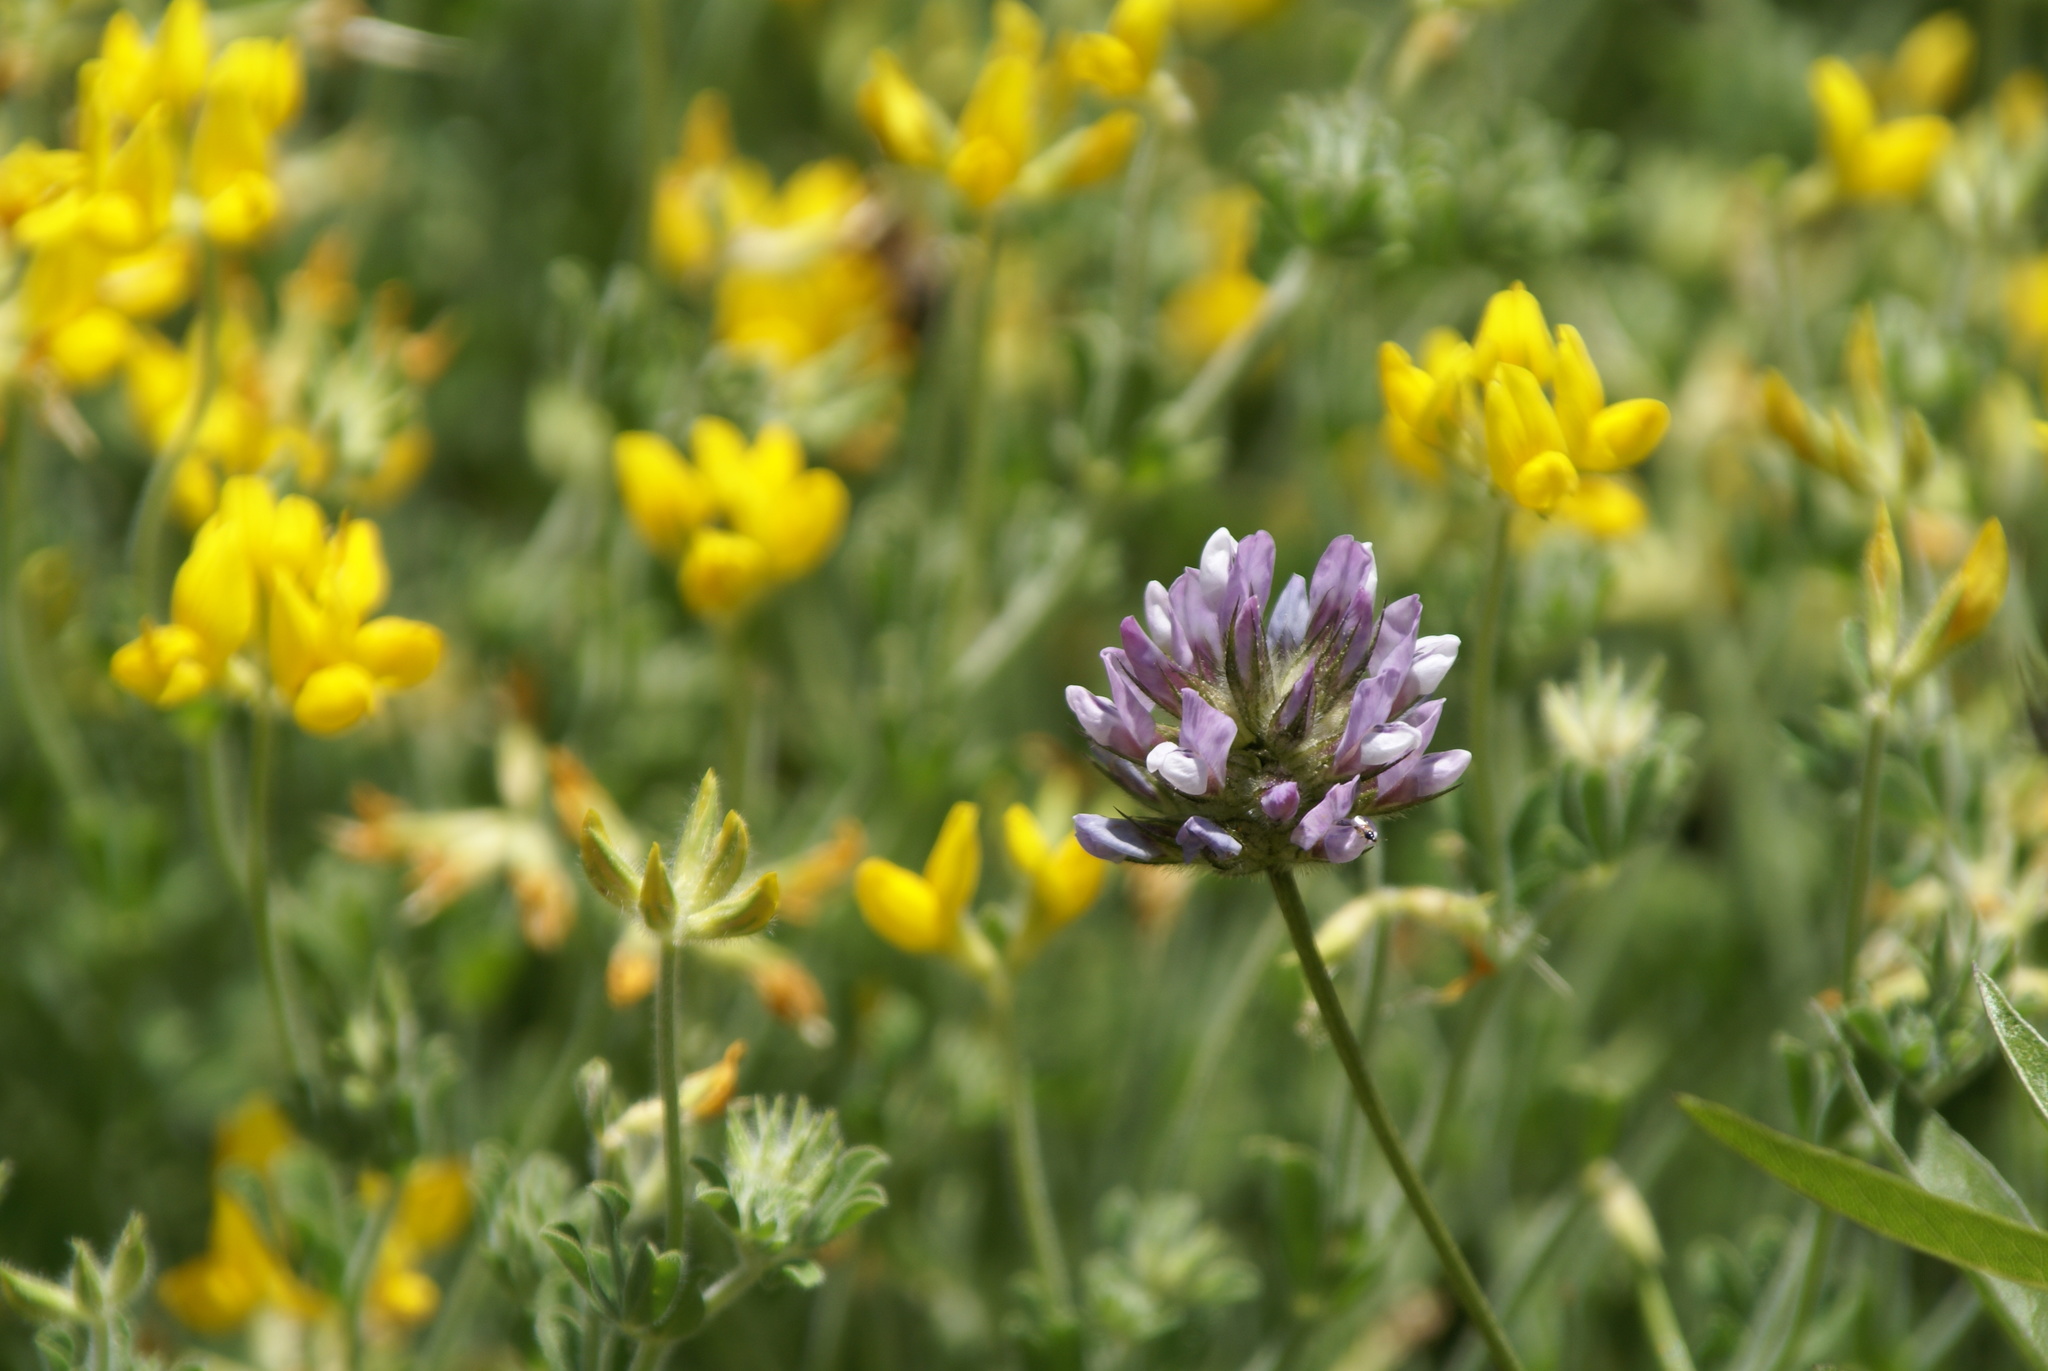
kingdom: Plantae
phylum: Tracheophyta
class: Magnoliopsida
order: Fabales
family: Fabaceae
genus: Bituminaria
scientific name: Bituminaria bituminosa
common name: Arabian pea
